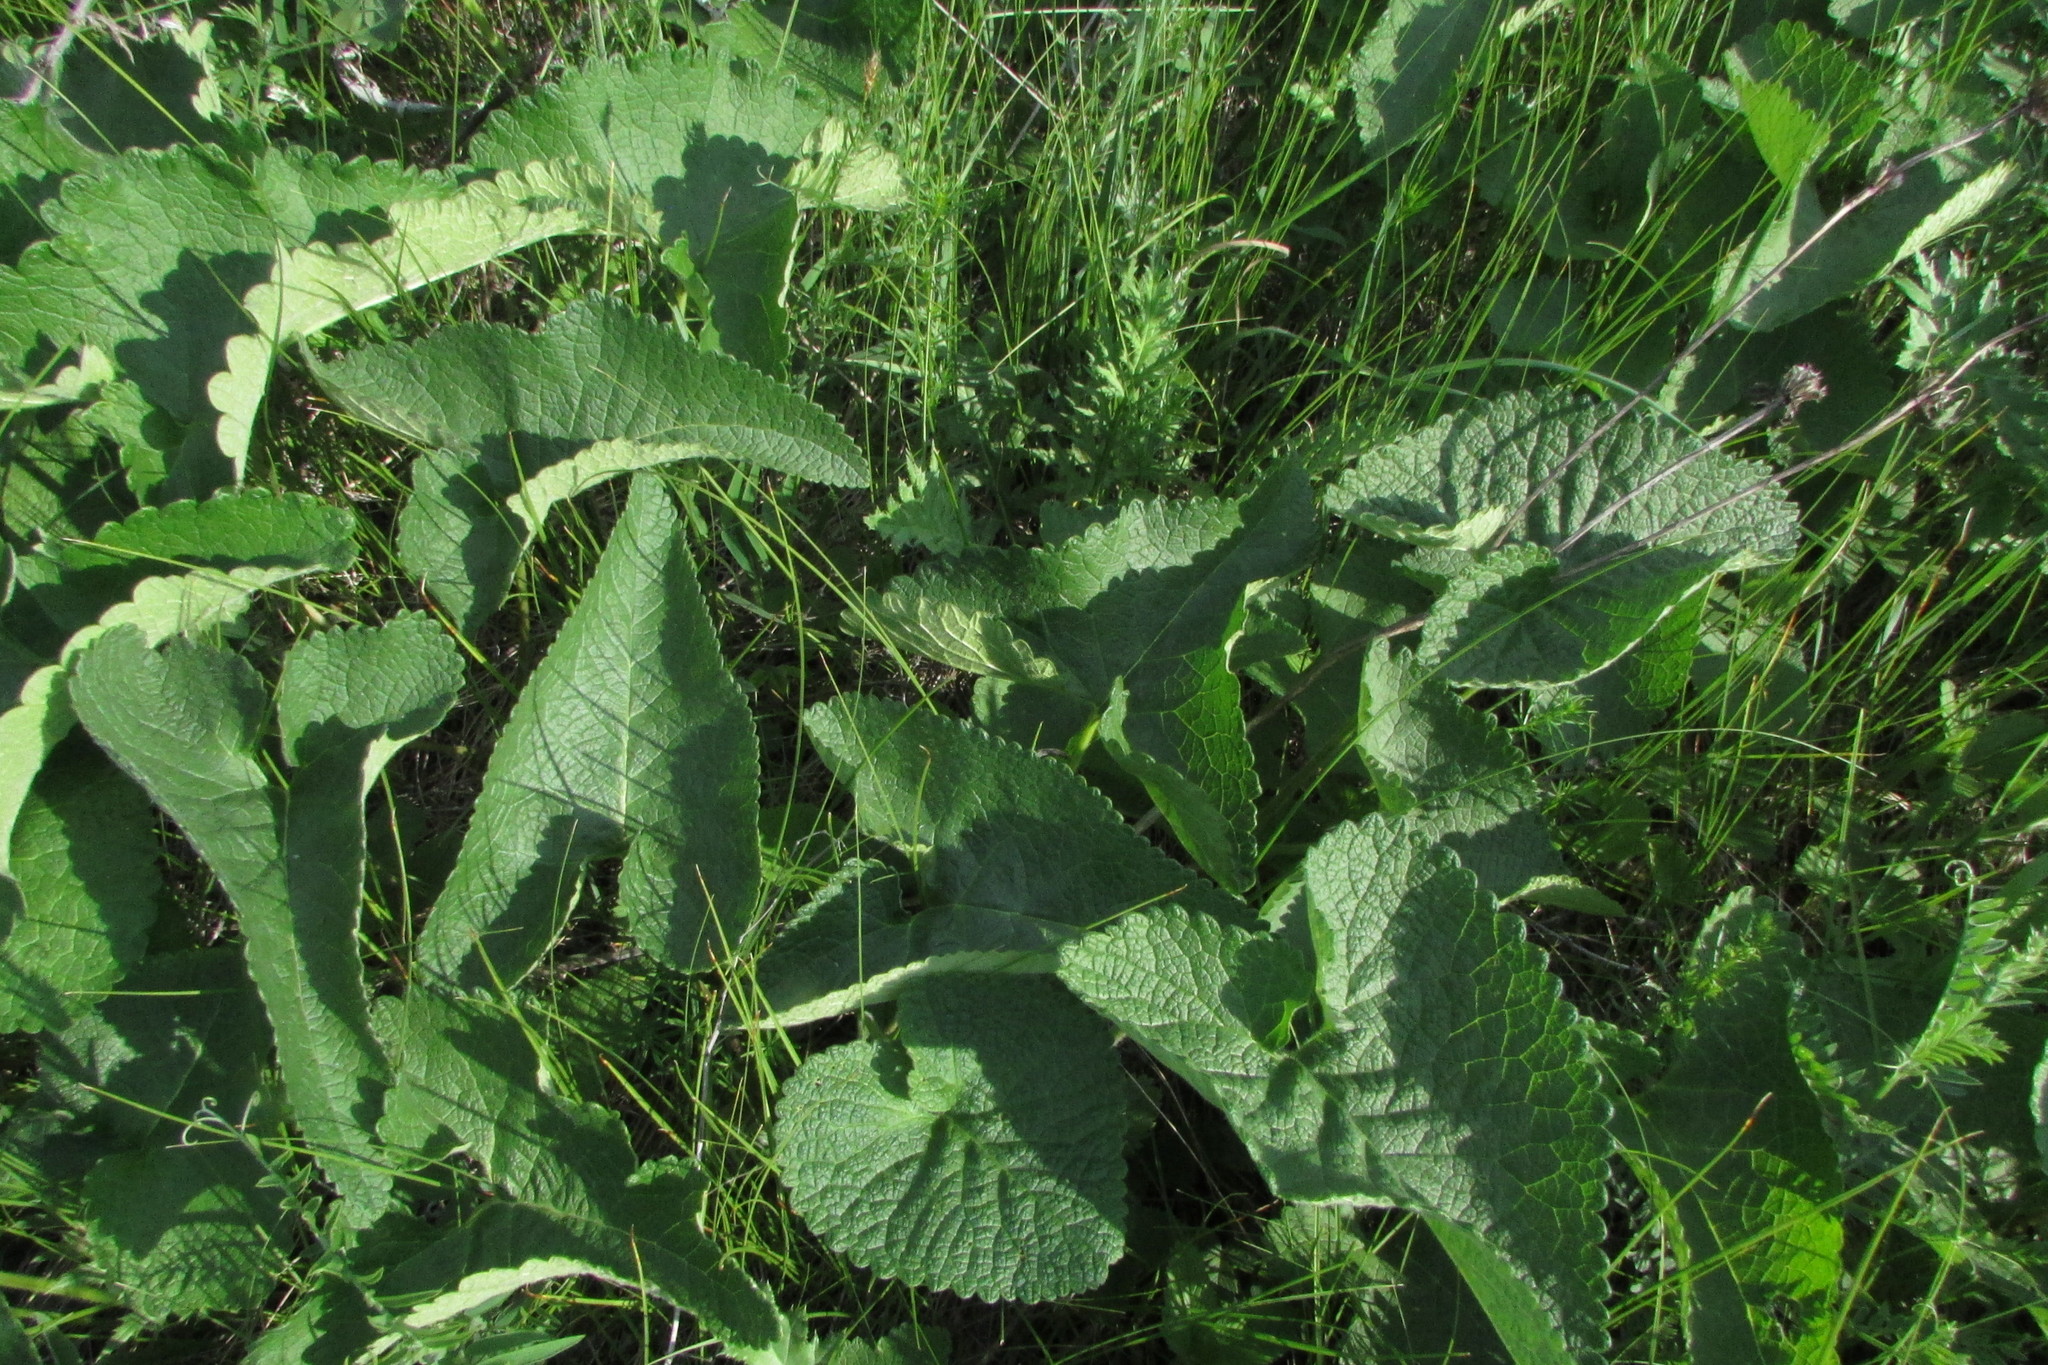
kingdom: Plantae
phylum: Tracheophyta
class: Magnoliopsida
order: Lamiales
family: Lamiaceae
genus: Phlomoides
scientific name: Phlomoides tuberosa
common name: Tuberous jerusalem sage
